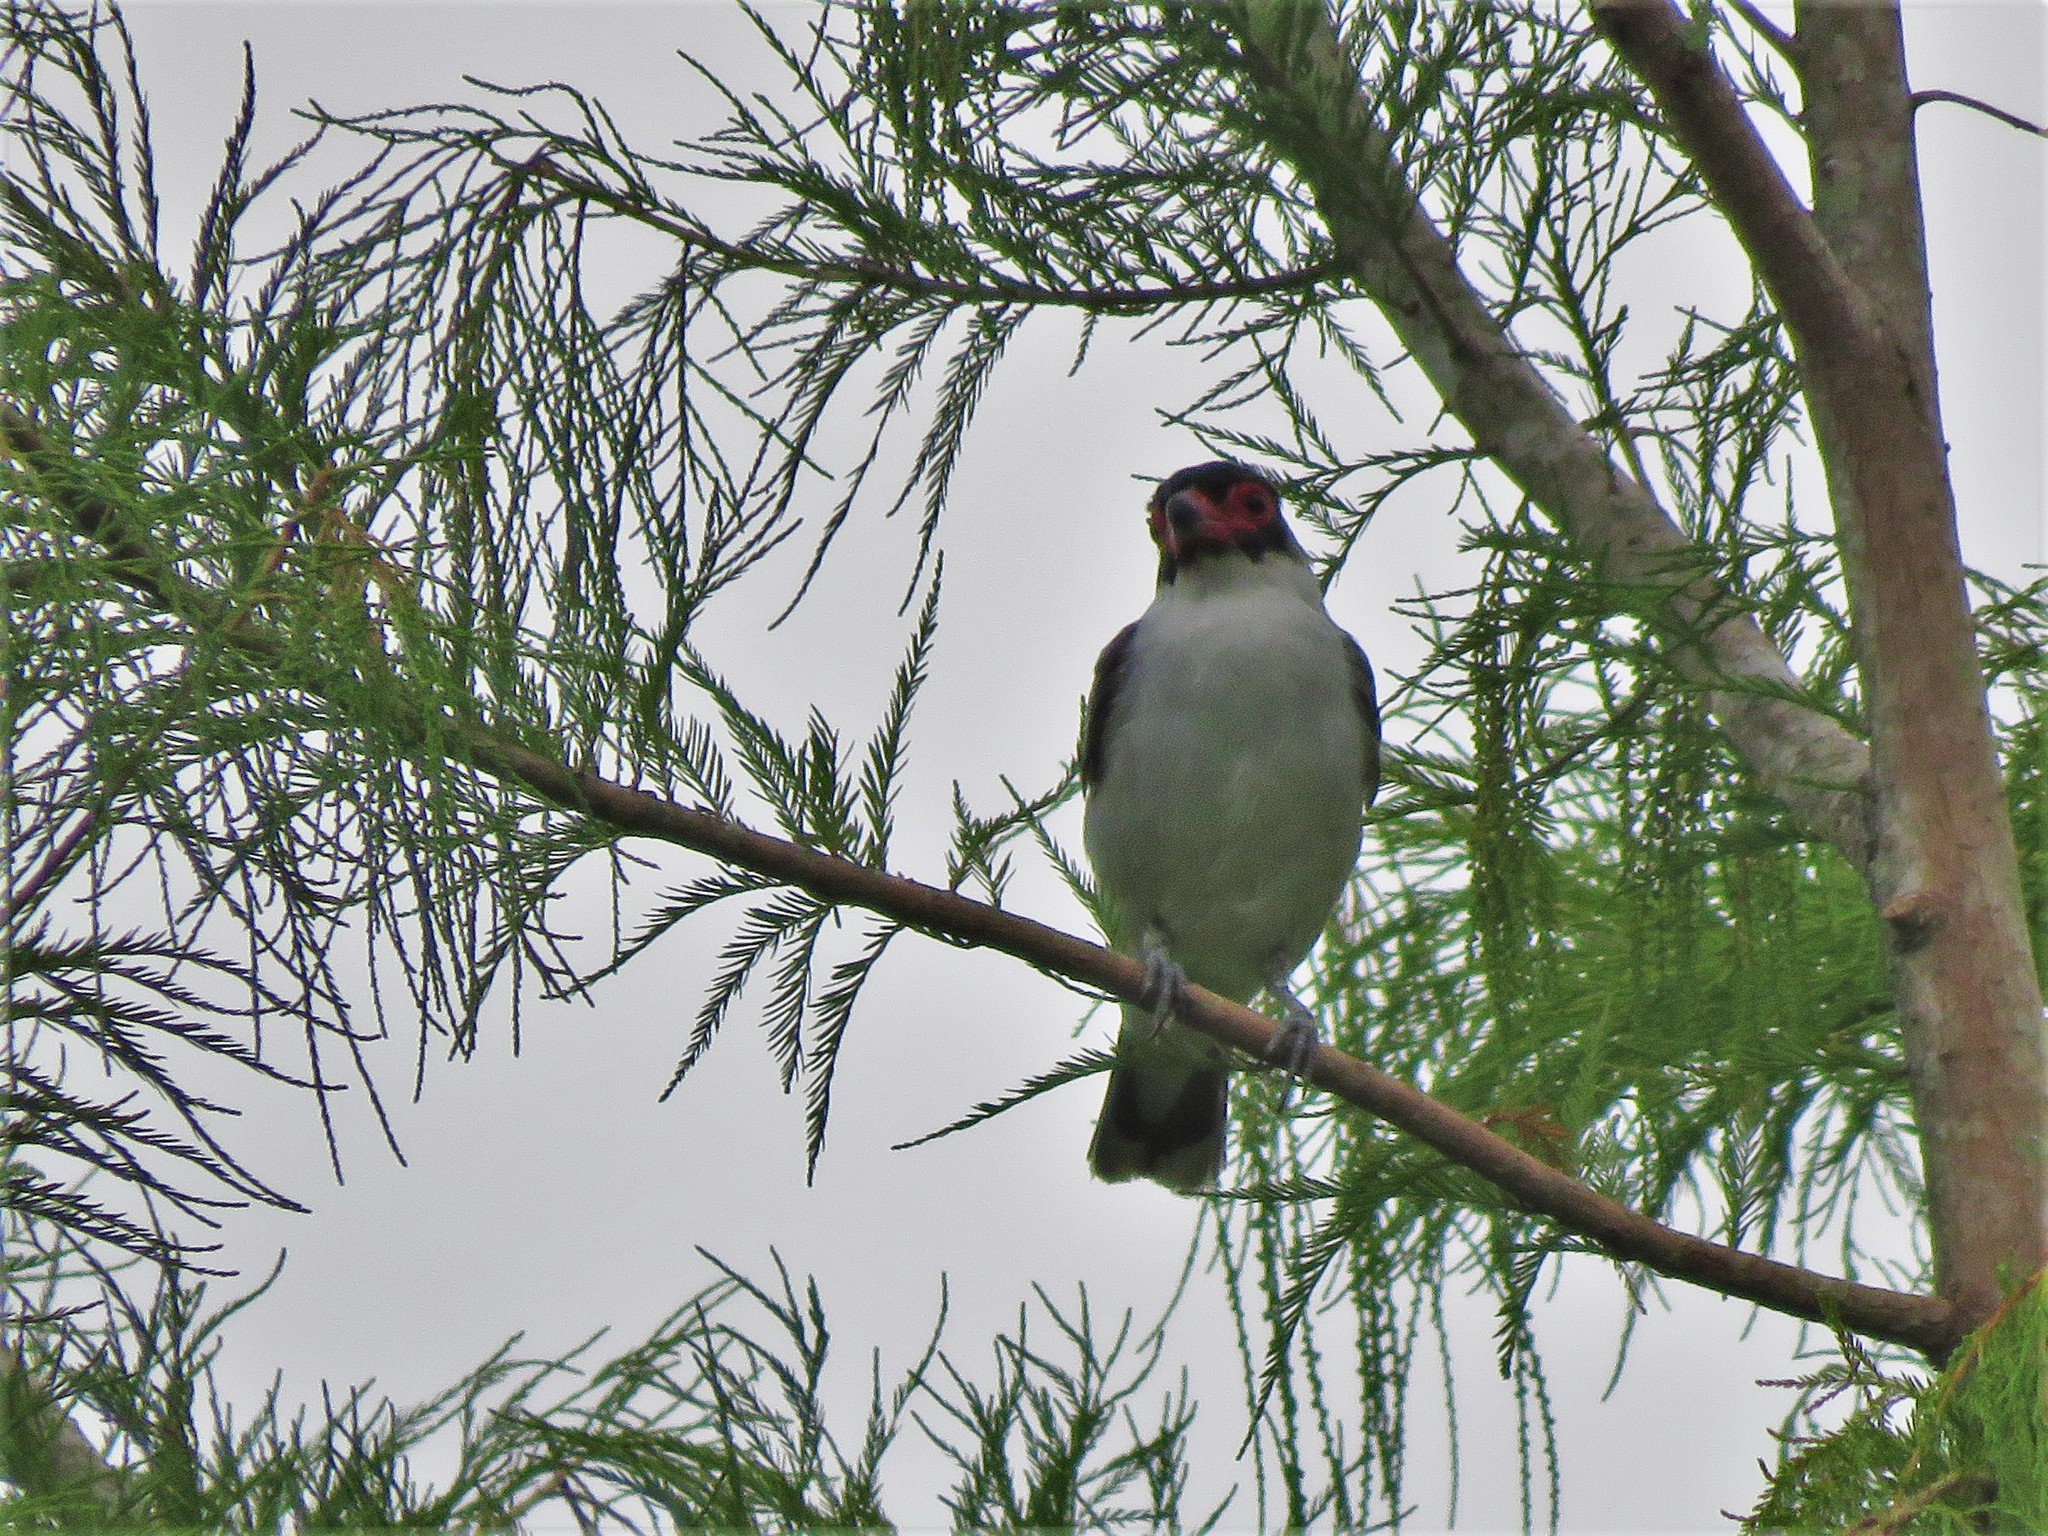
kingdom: Animalia
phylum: Chordata
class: Aves
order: Passeriformes
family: Cotingidae
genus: Tityra
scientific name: Tityra semifasciata
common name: Masked tityra
